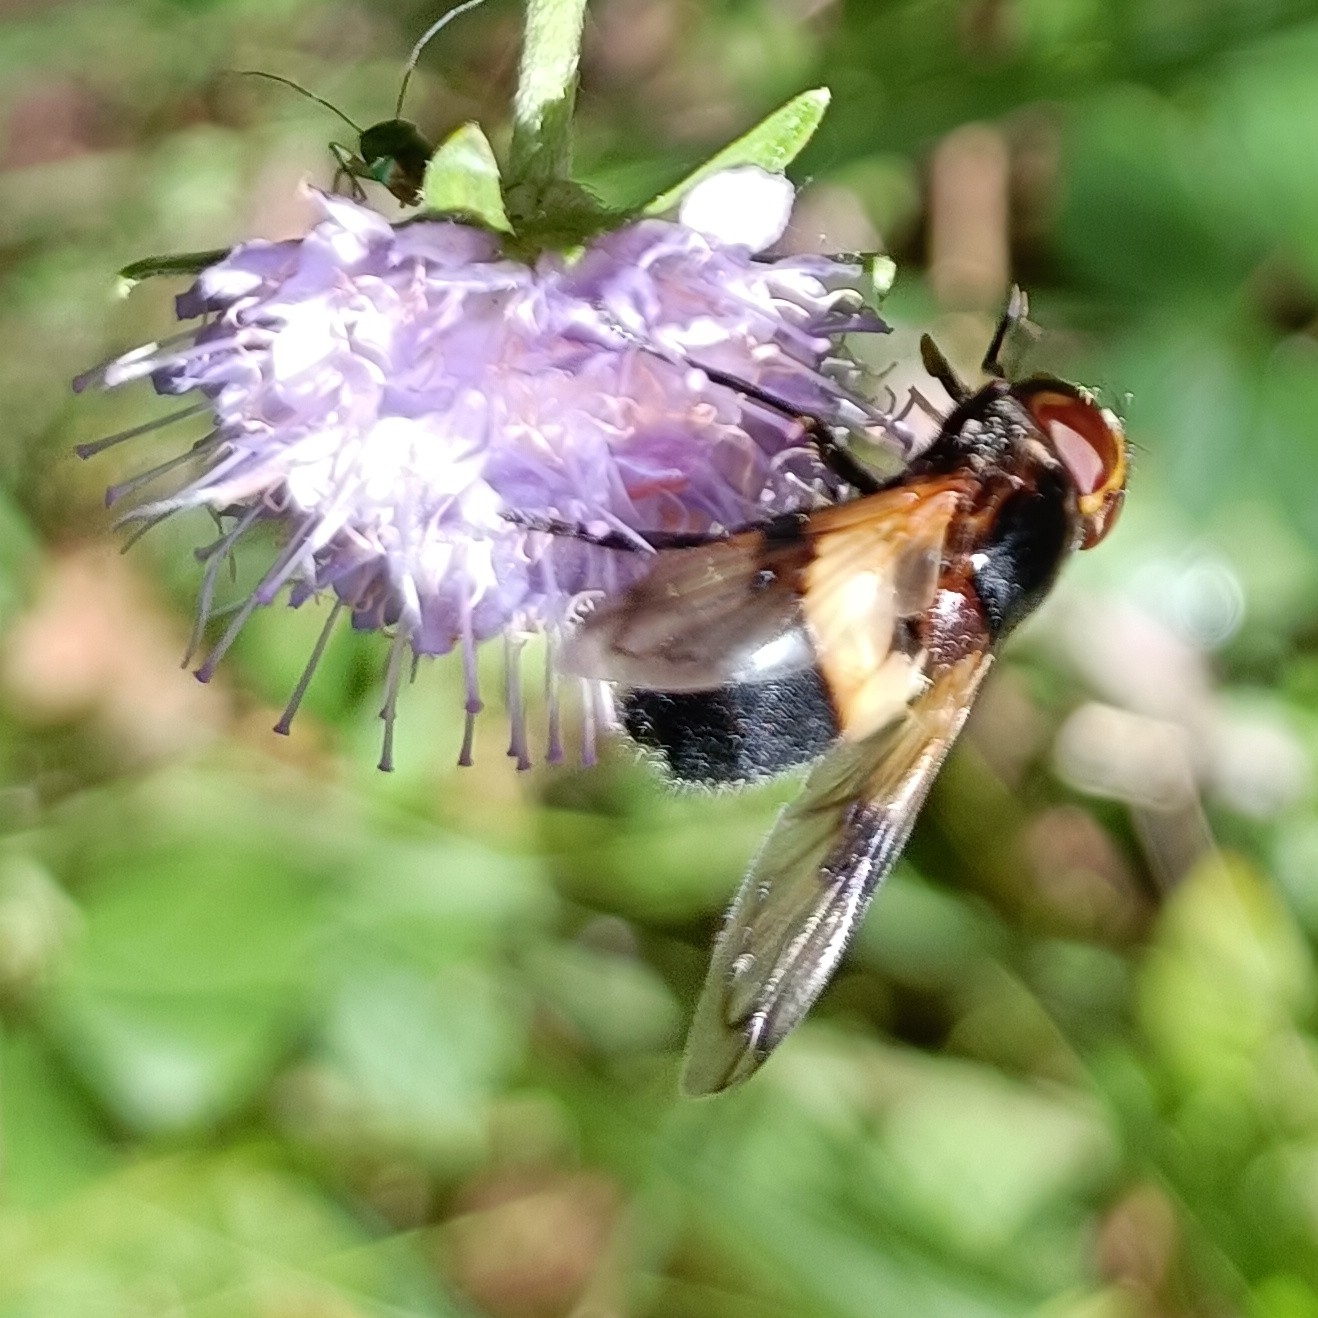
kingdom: Animalia
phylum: Arthropoda
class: Insecta
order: Diptera
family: Syrphidae
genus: Volucella
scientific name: Volucella pellucens
